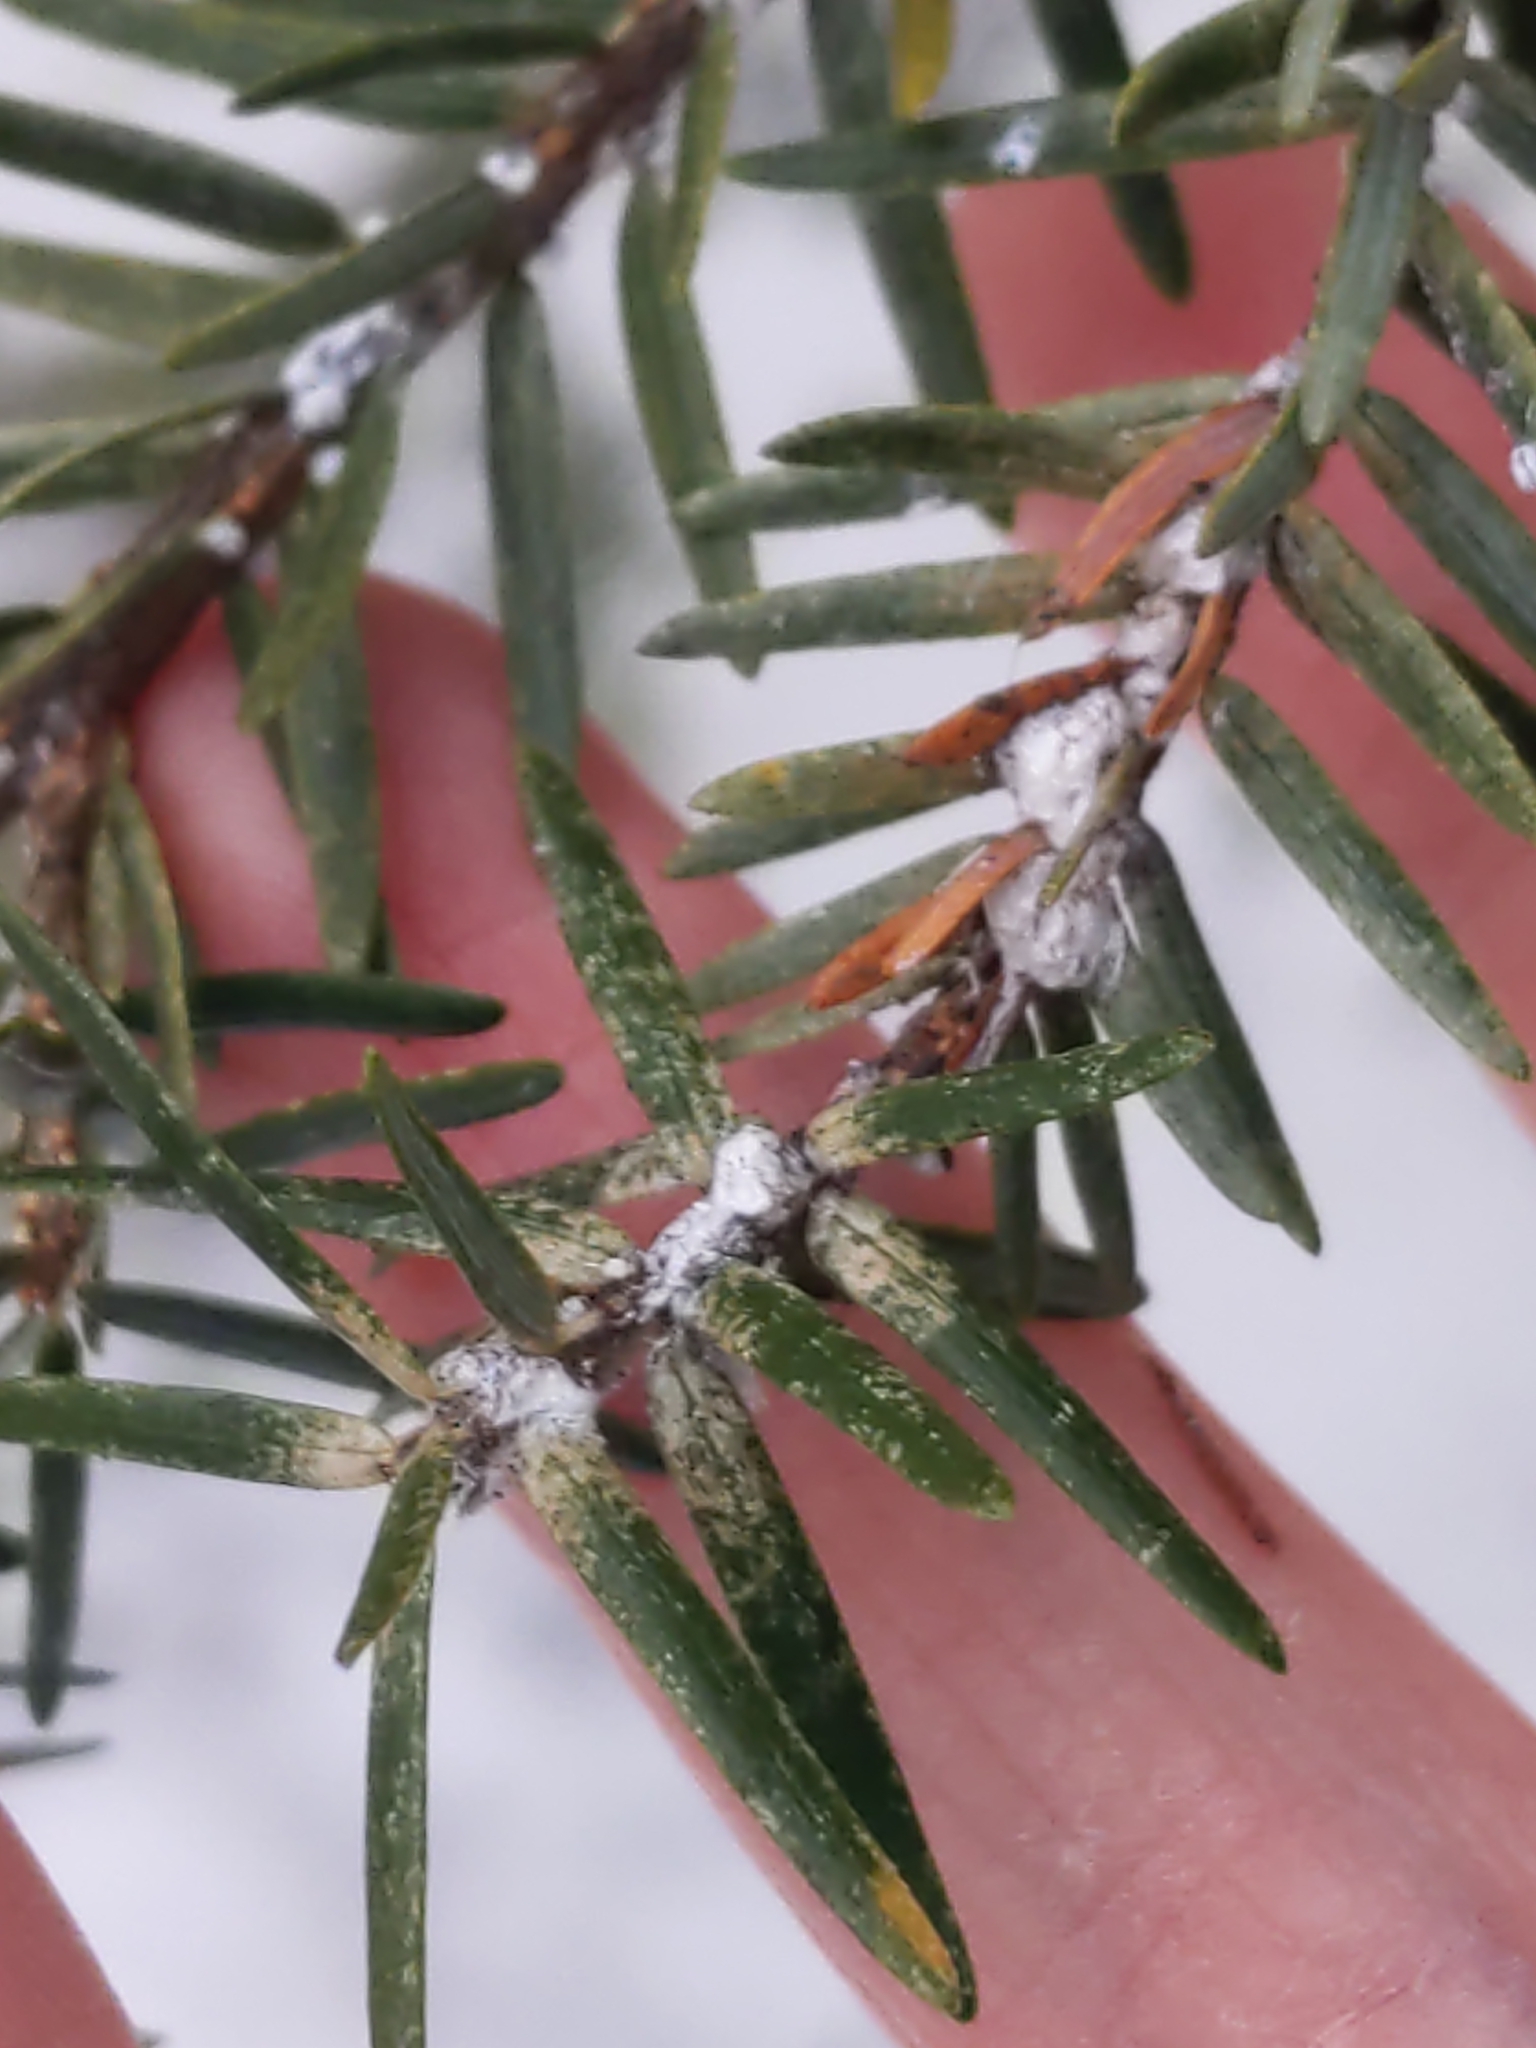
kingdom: Animalia
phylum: Arthropoda
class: Insecta
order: Hemiptera
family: Adelgidae
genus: Adelges
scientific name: Adelges tsugae
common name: Hemlock woolly adelgid
